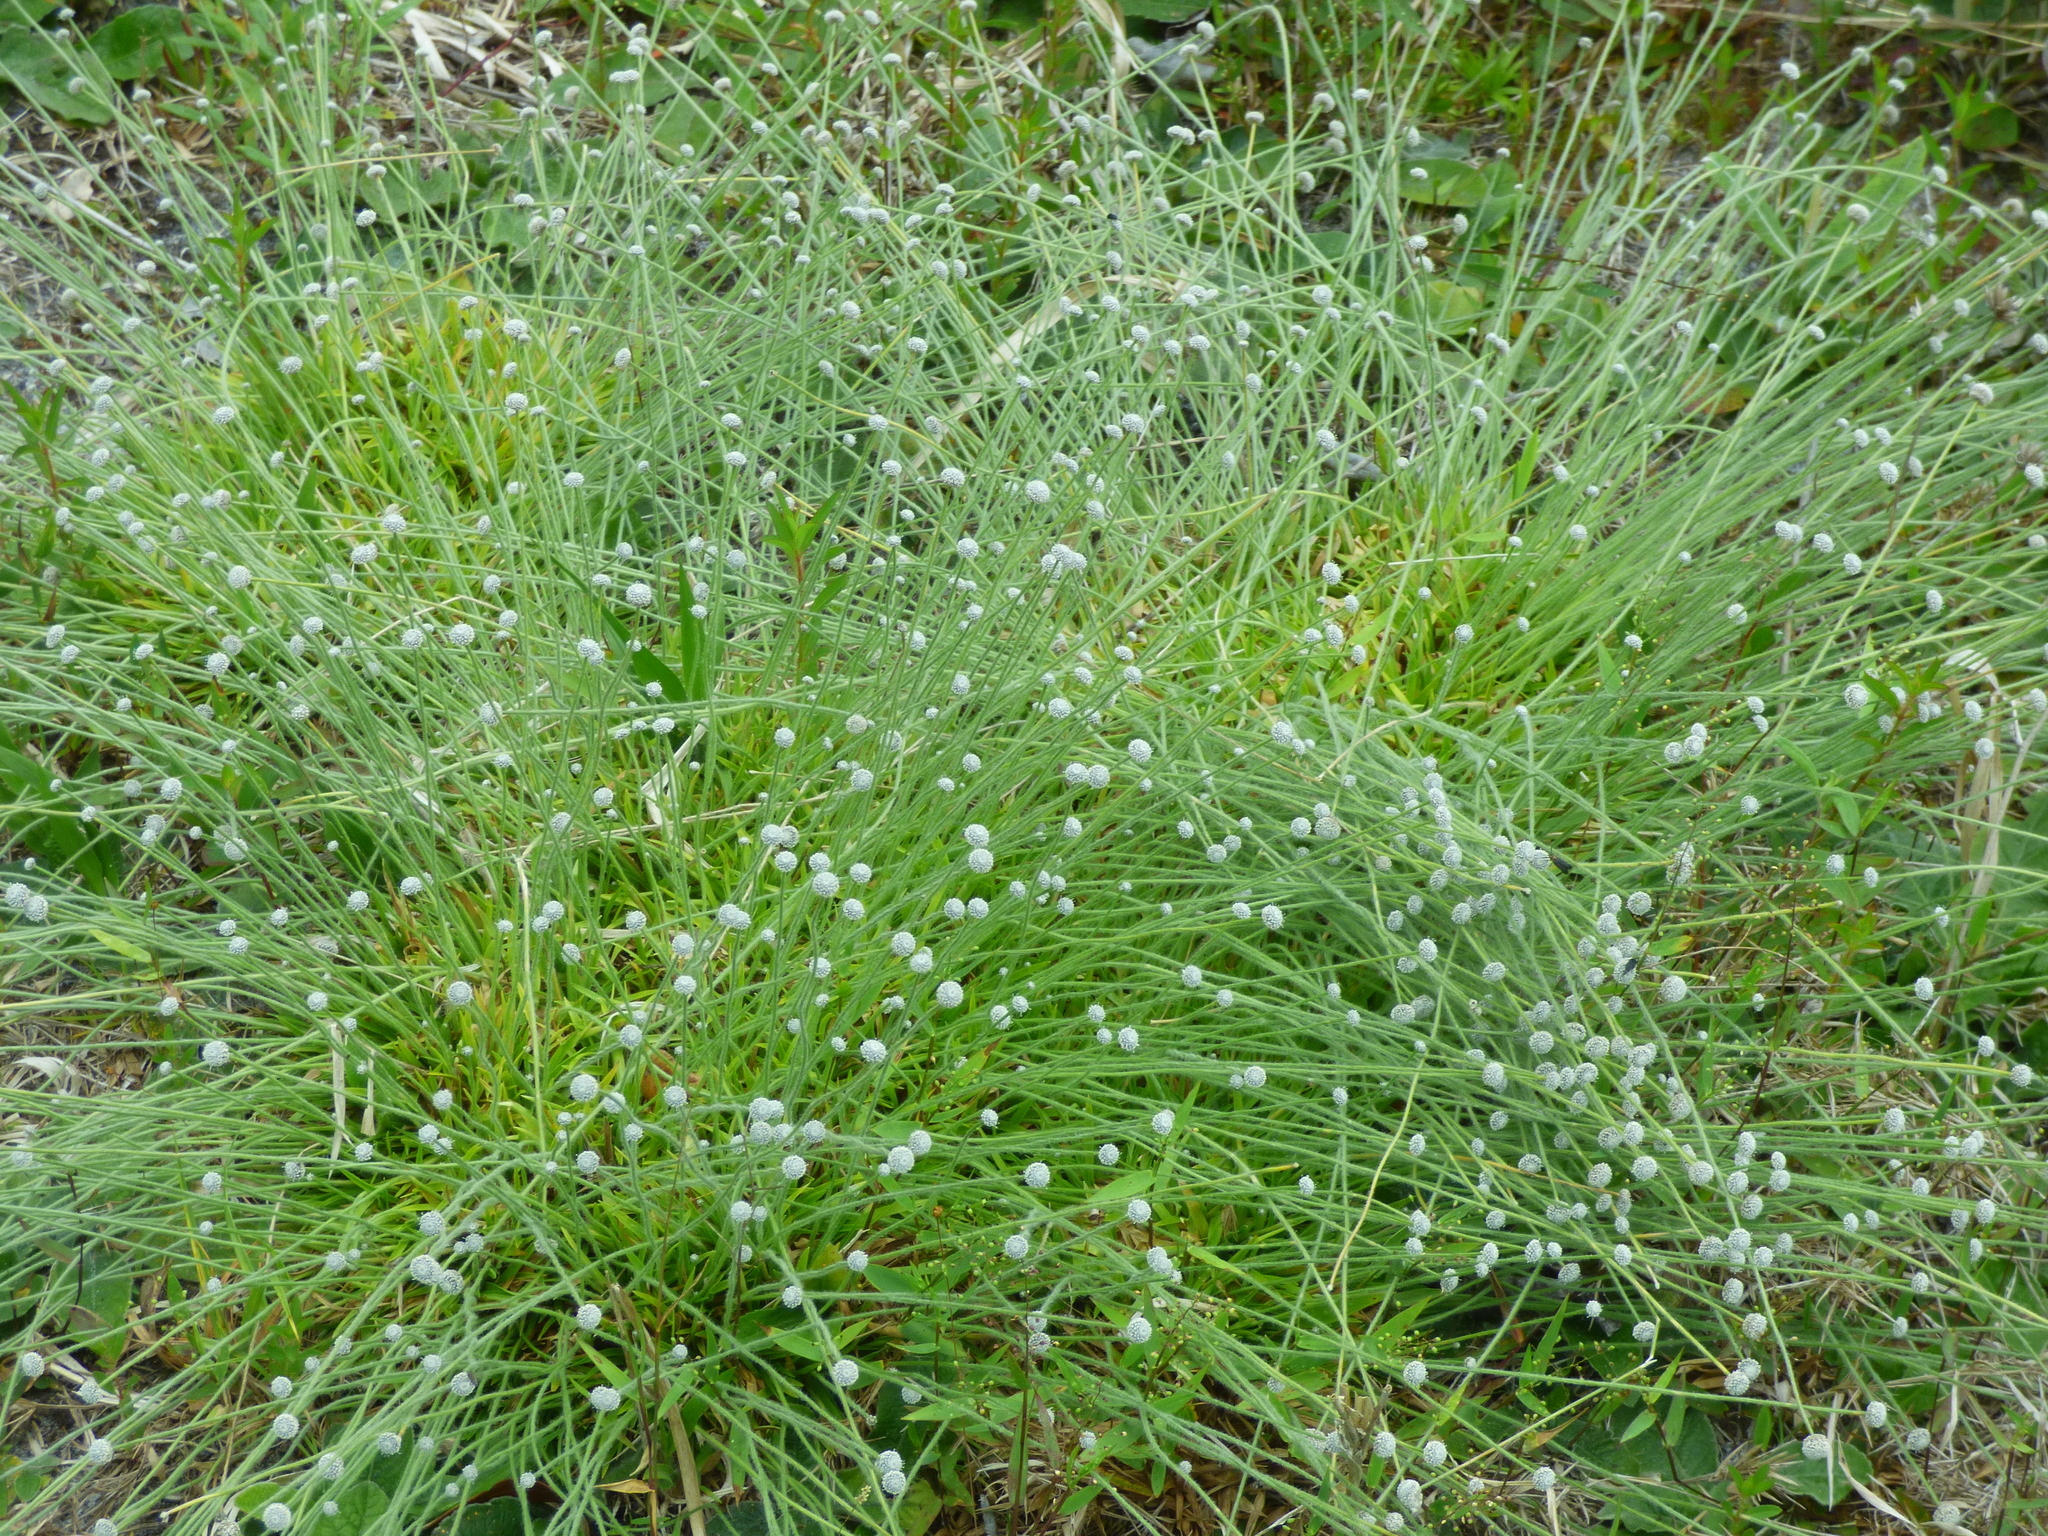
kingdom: Plantae
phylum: Tracheophyta
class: Liliopsida
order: Poales
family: Eriocaulaceae
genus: Paepalanthus
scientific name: Paepalanthus anceps
